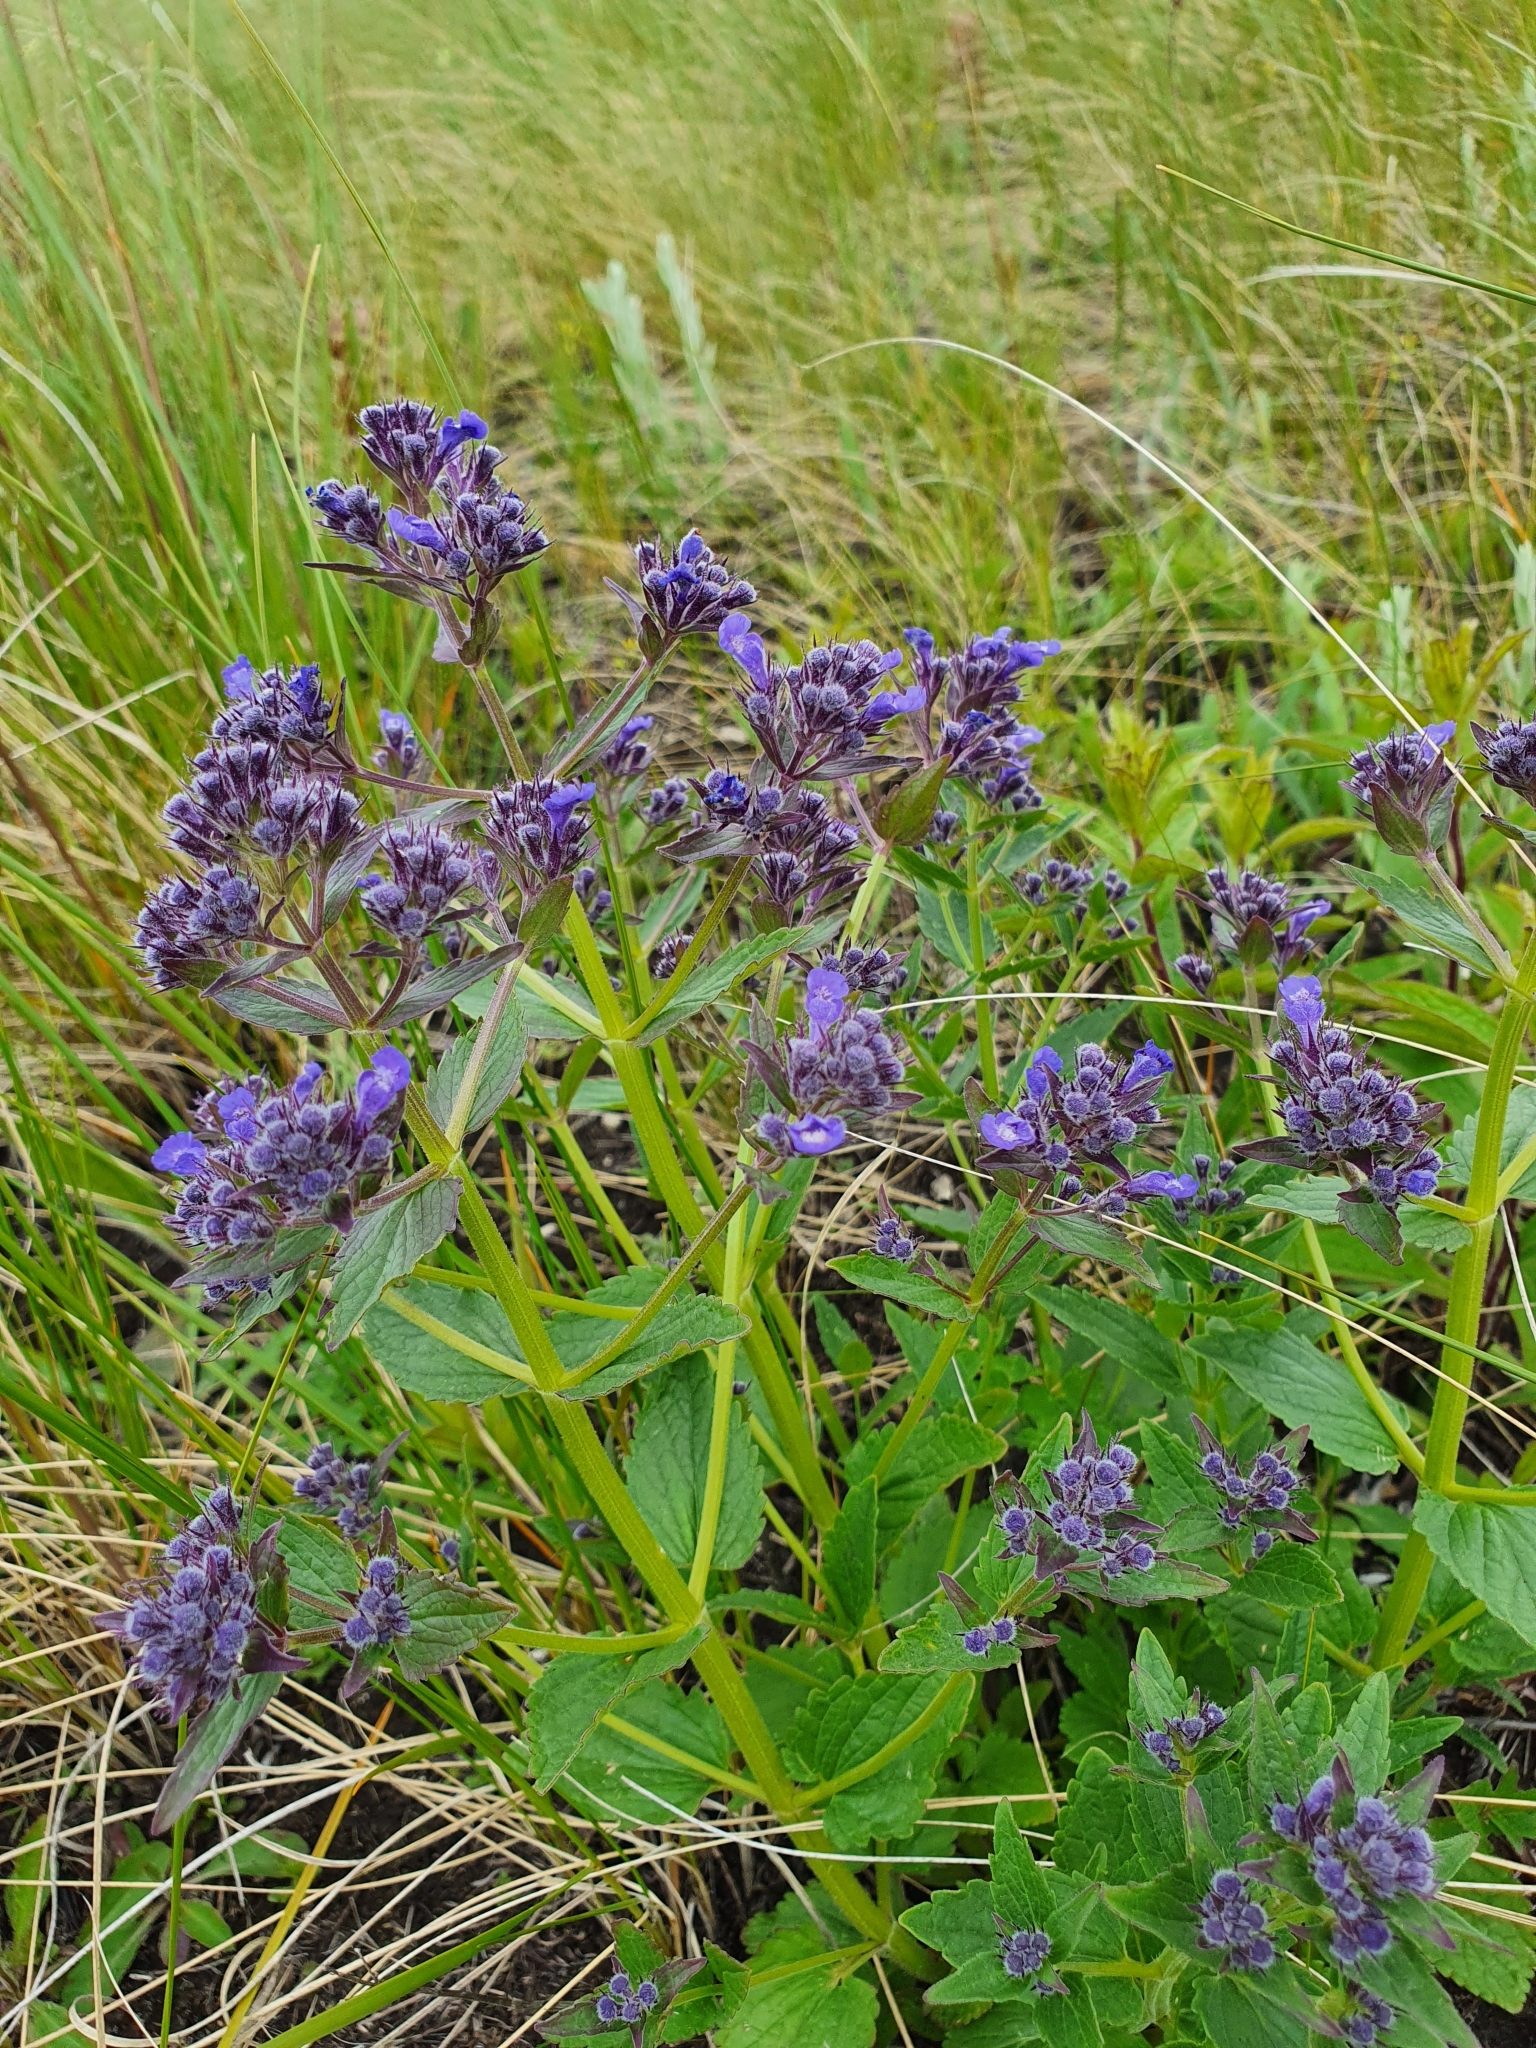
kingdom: Plantae
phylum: Tracheophyta
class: Magnoliopsida
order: Lamiales
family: Lamiaceae
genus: Nepeta
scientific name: Nepeta ucranica
